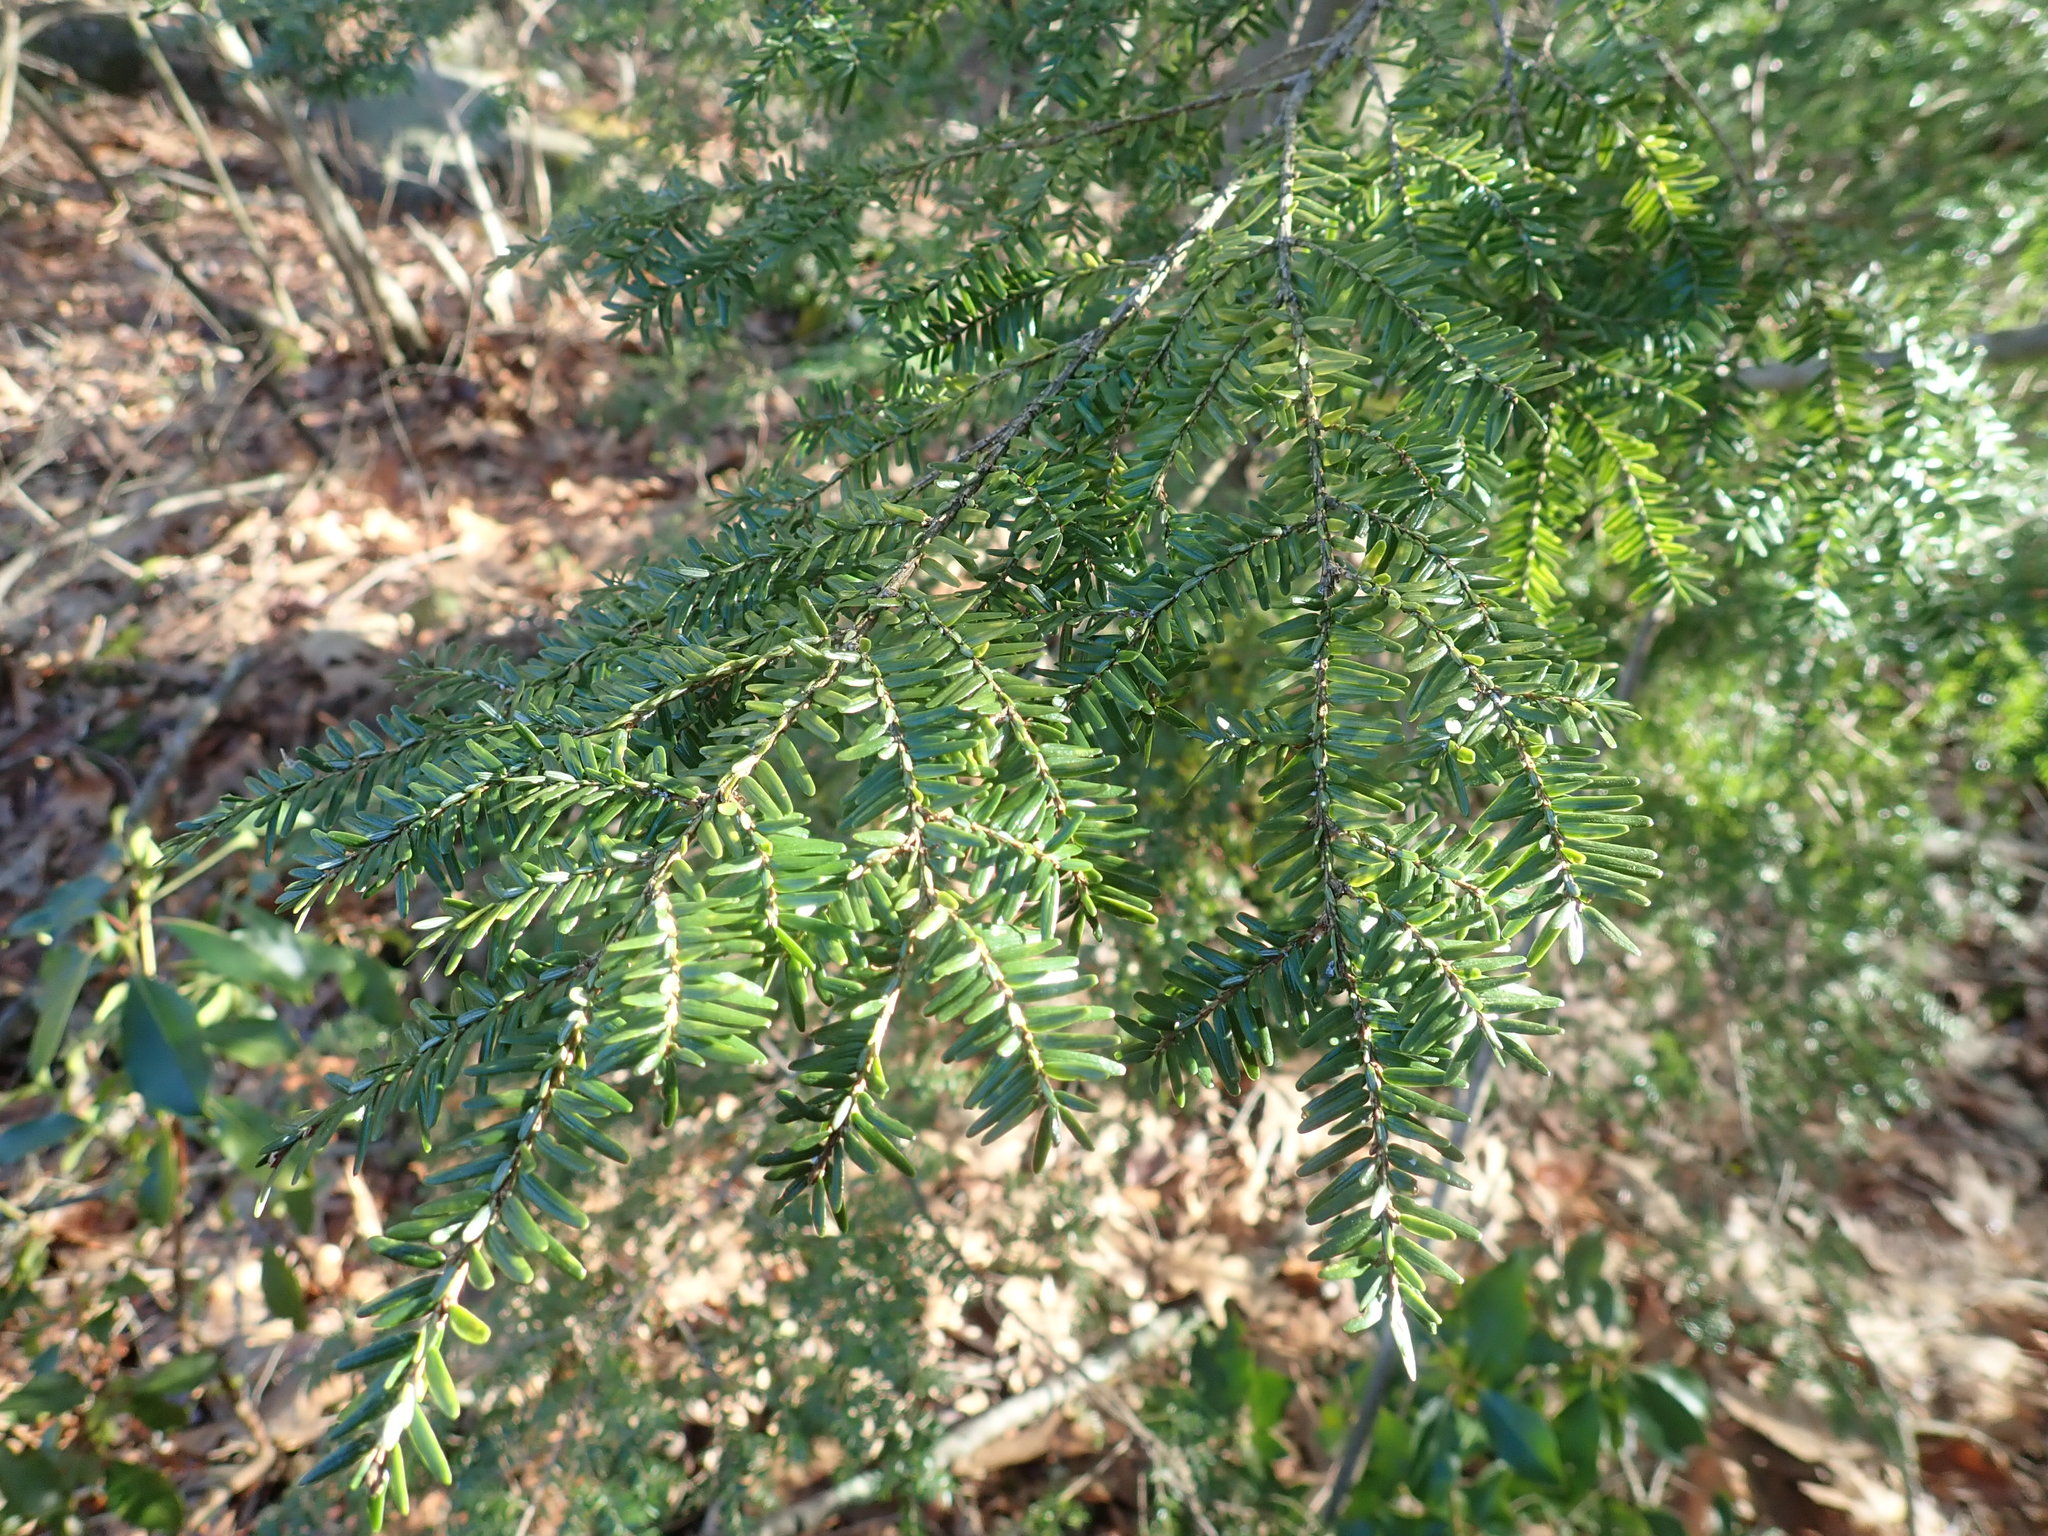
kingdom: Plantae
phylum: Tracheophyta
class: Pinopsida
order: Pinales
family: Pinaceae
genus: Tsuga
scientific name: Tsuga canadensis
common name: Eastern hemlock
